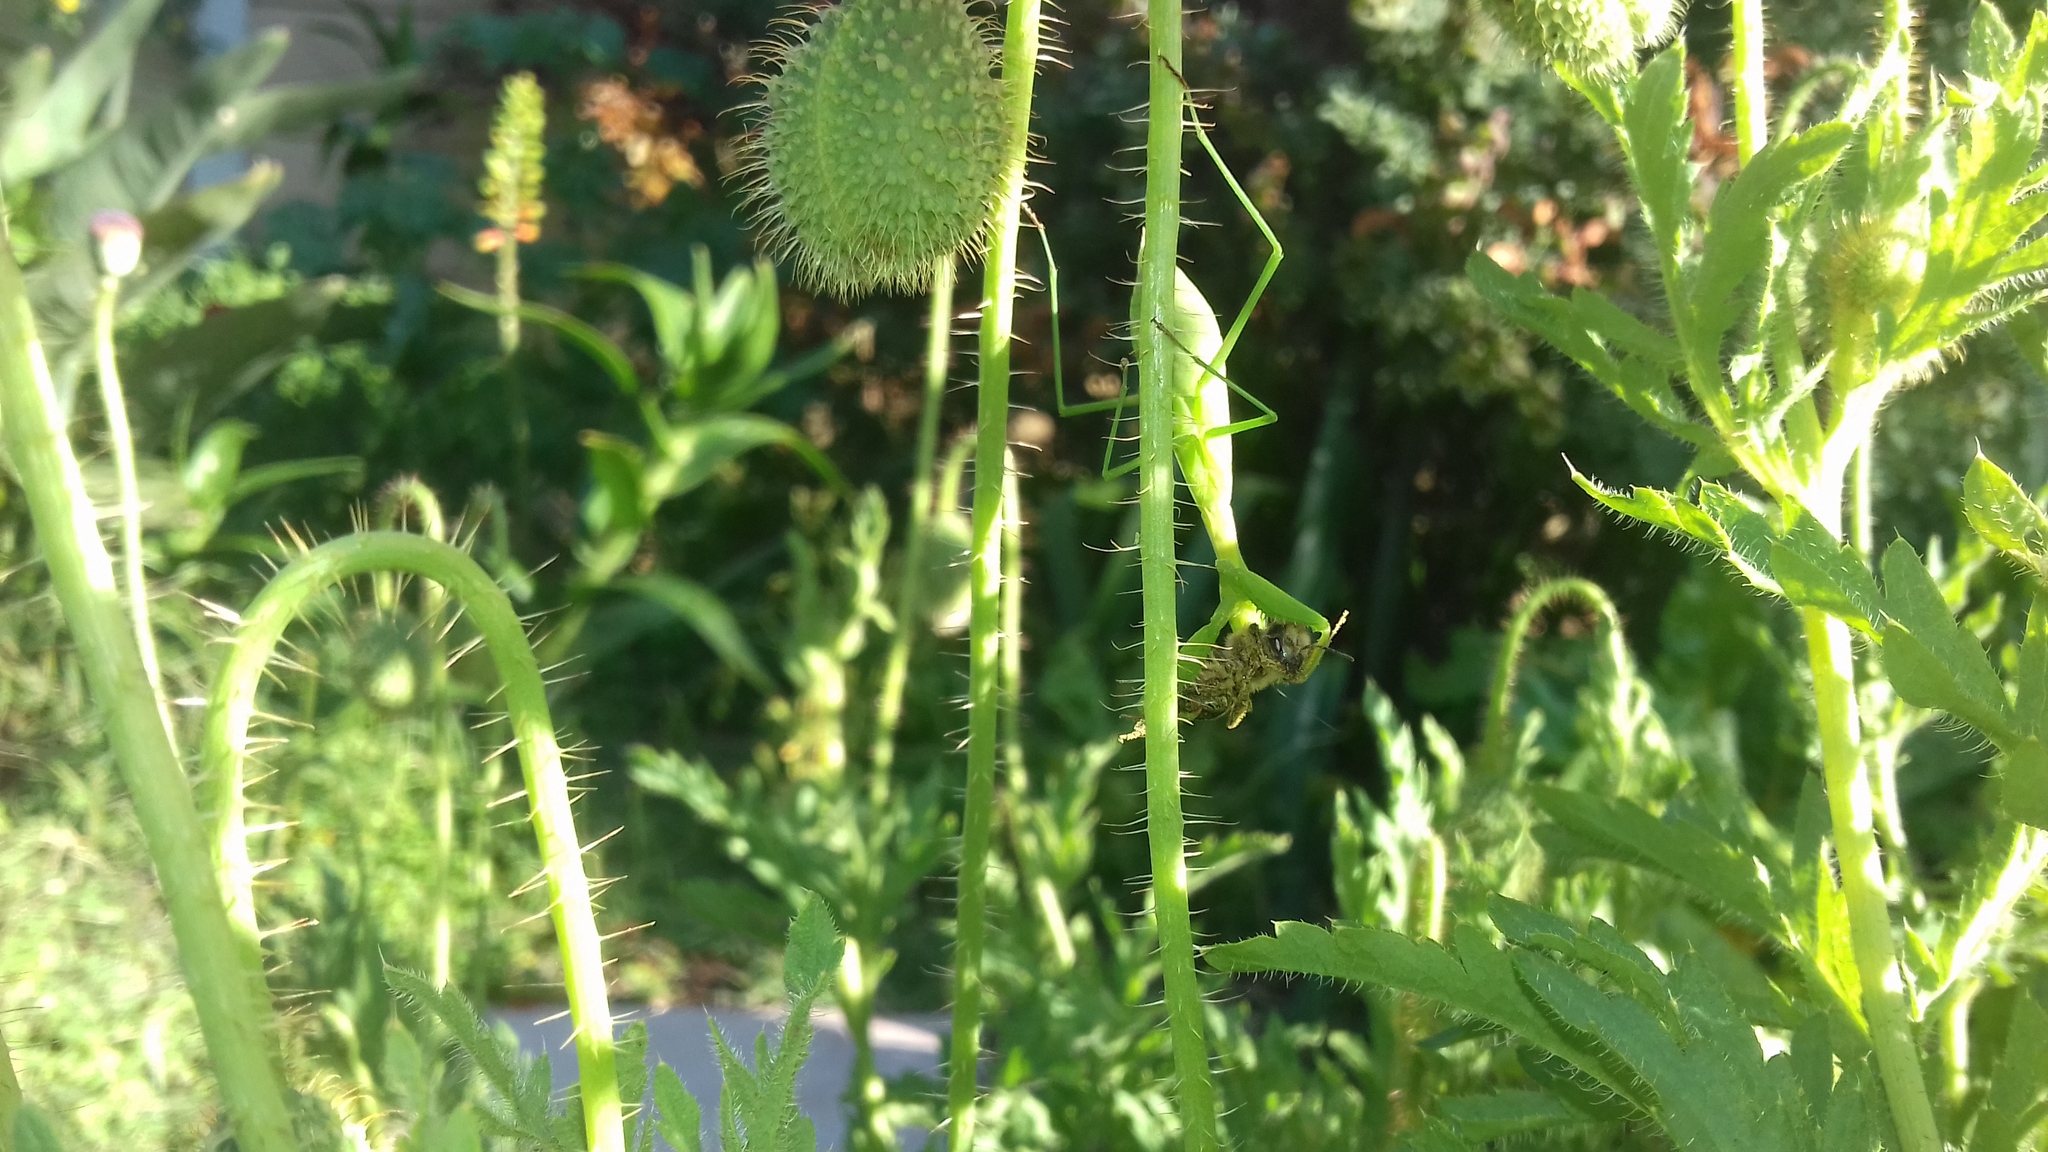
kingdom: Animalia
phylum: Arthropoda
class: Insecta
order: Hymenoptera
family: Apidae
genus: Apis
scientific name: Apis mellifera
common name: Honey bee
